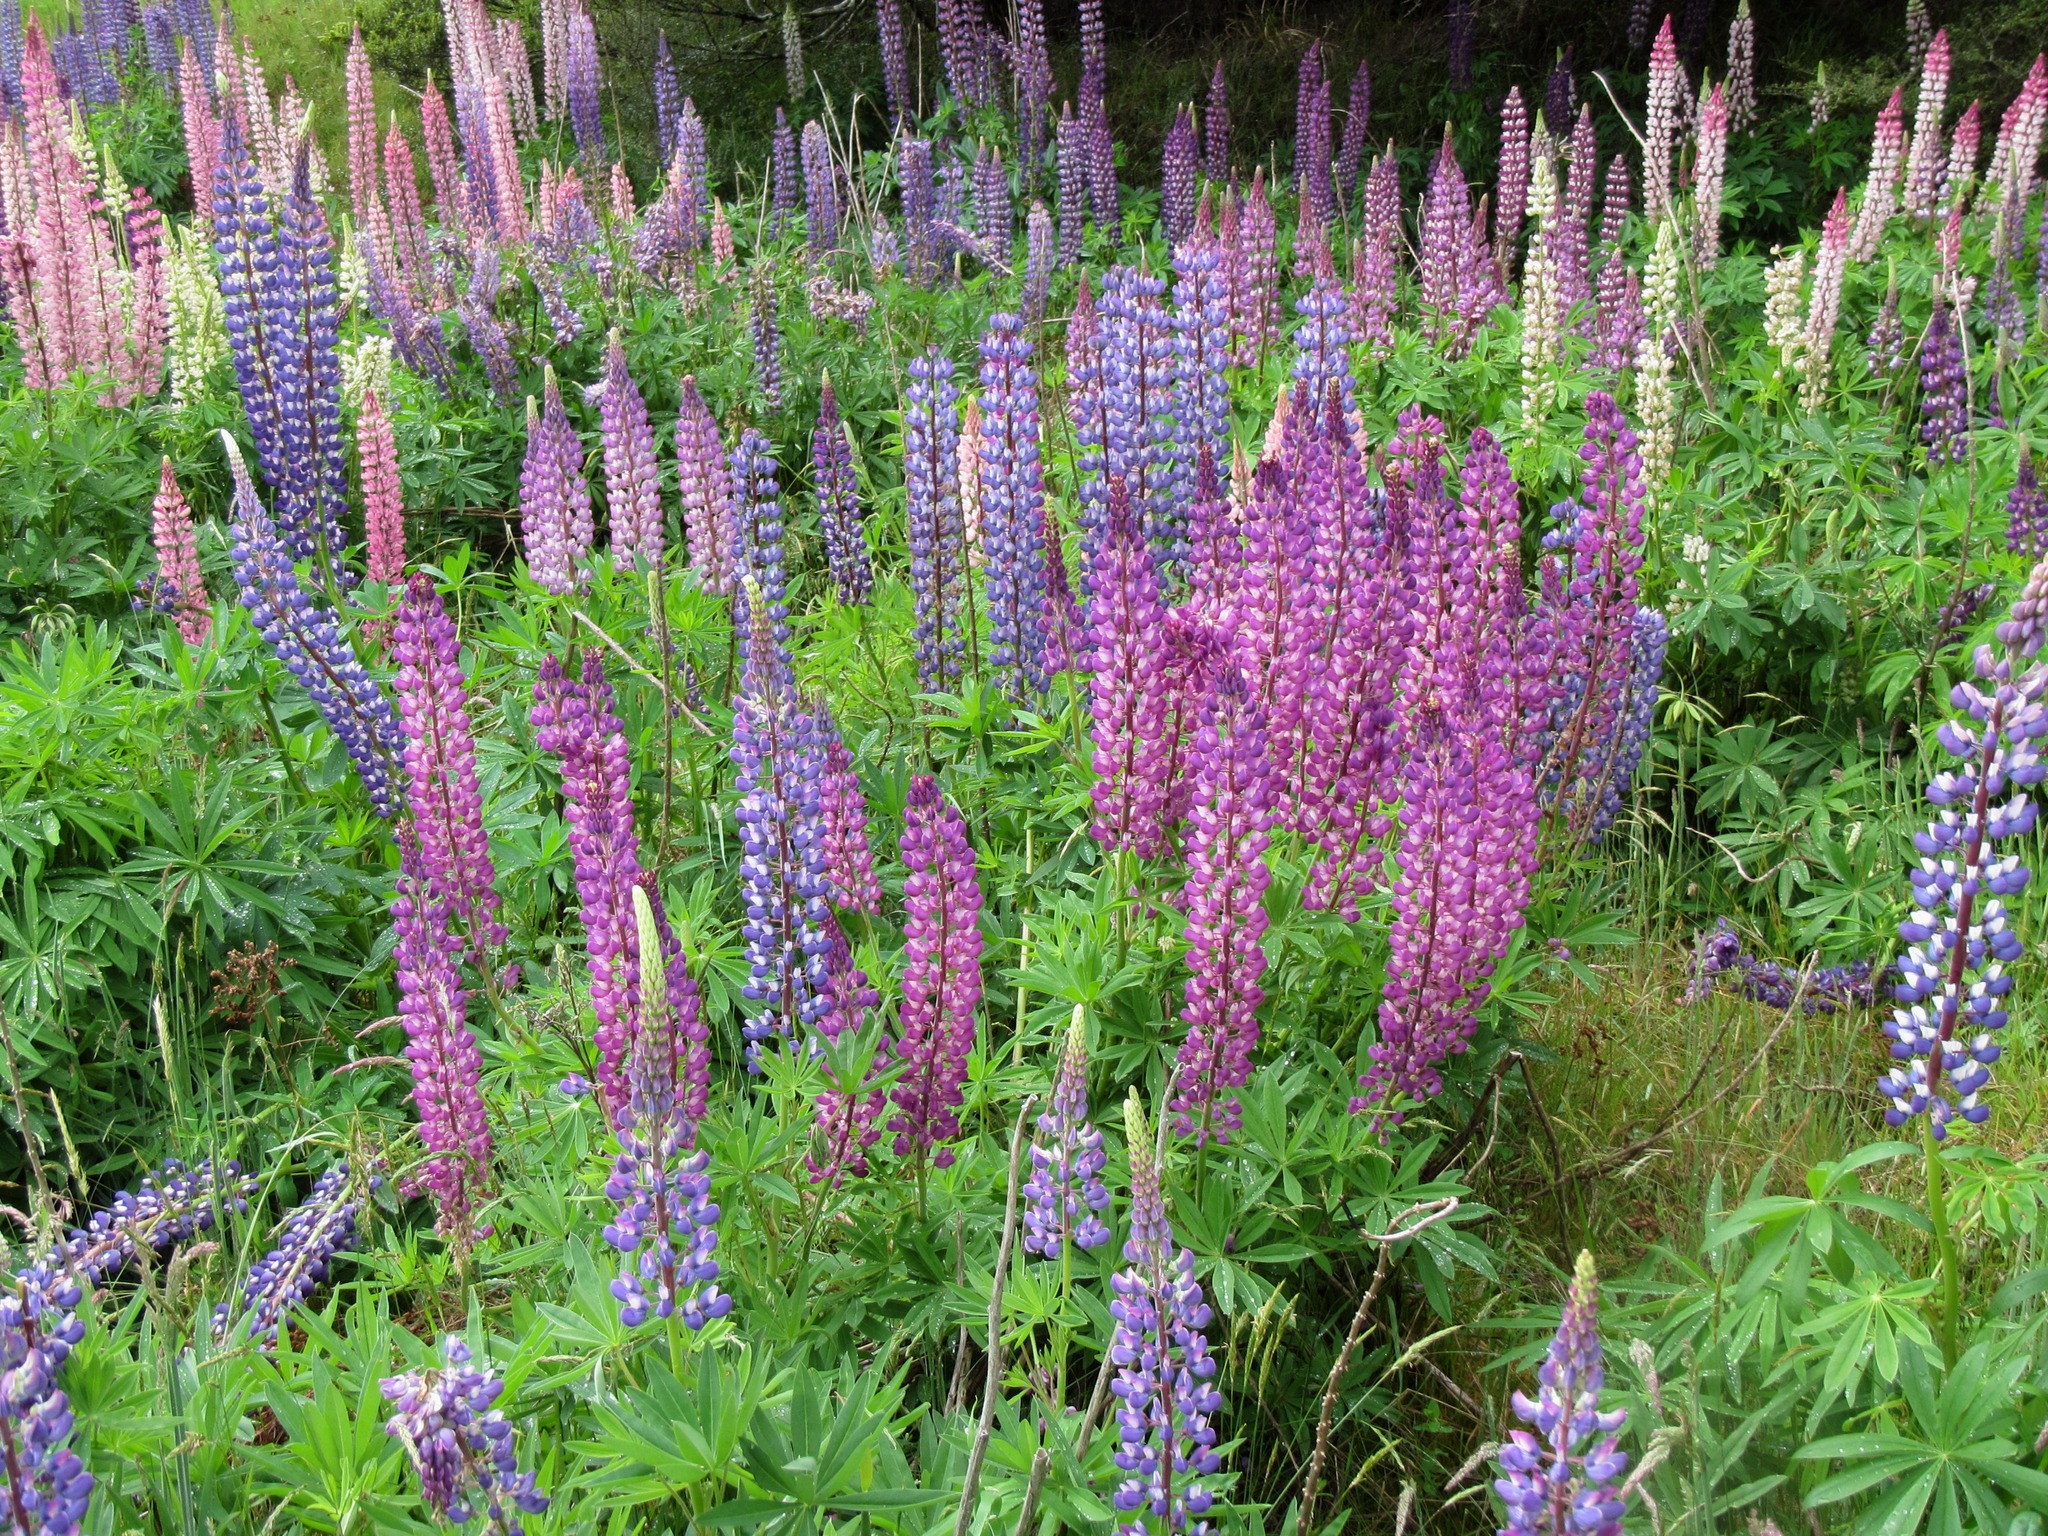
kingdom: Plantae
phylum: Tracheophyta
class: Magnoliopsida
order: Fabales
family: Fabaceae
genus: Lupinus
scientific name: Lupinus polyphyllus
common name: Garden lupin
